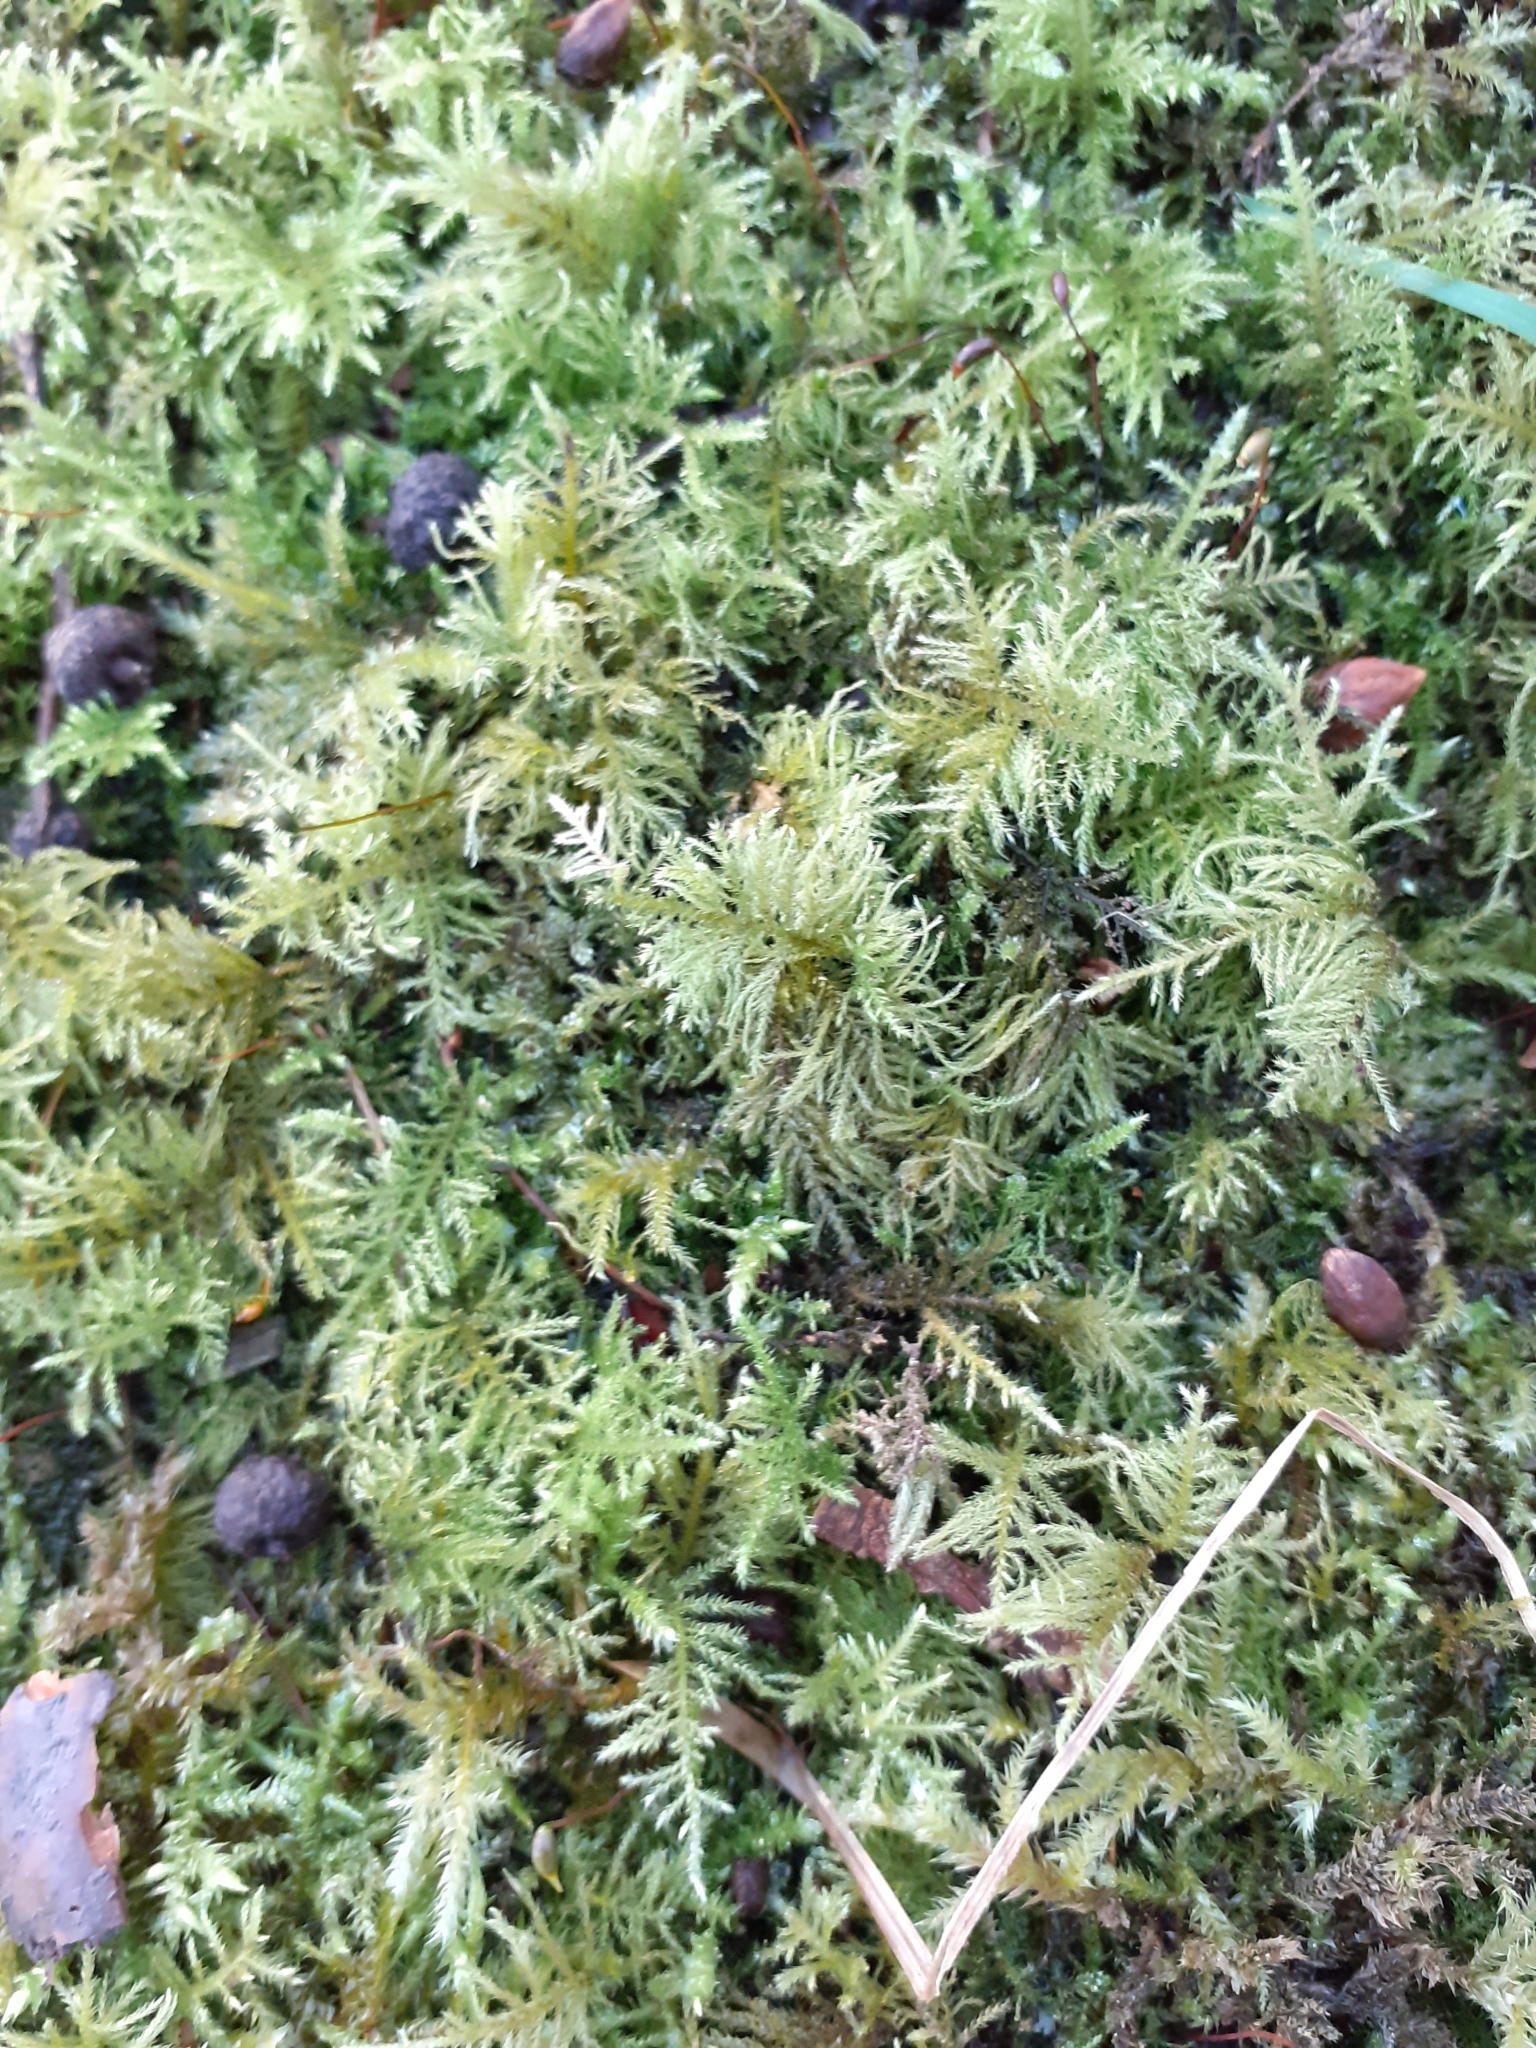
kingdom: Plantae
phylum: Bryophyta
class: Bryopsida
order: Hypnales
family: Brachytheciaceae
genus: Kindbergia
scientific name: Kindbergia praelonga
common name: Slender beaked moss
